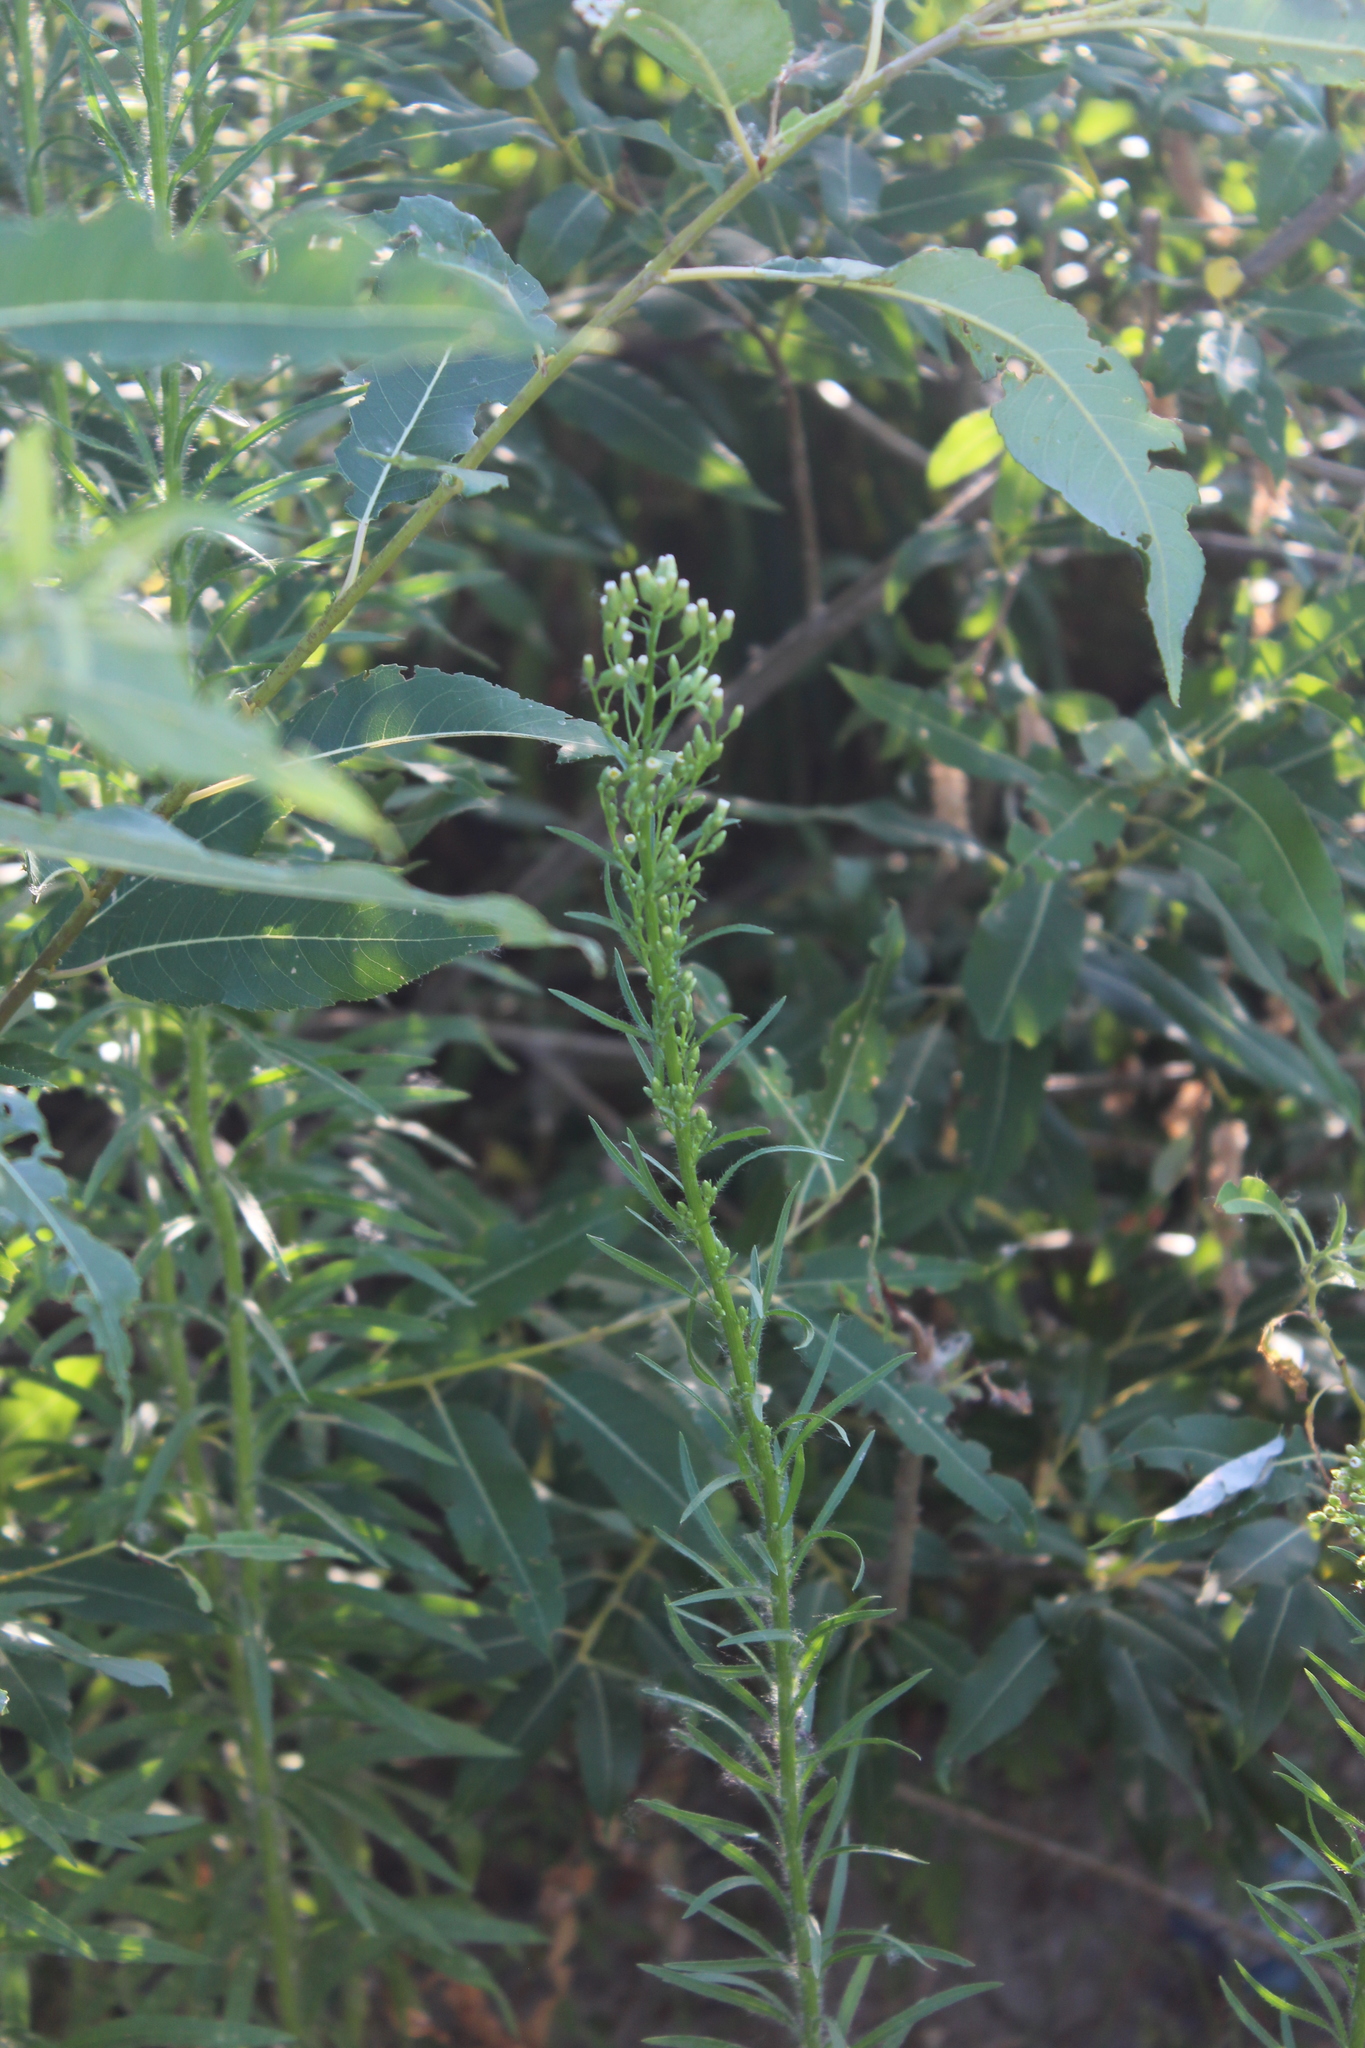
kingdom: Plantae
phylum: Tracheophyta
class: Magnoliopsida
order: Asterales
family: Asteraceae
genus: Erigeron
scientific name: Erigeron canadensis
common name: Canadian fleabane
